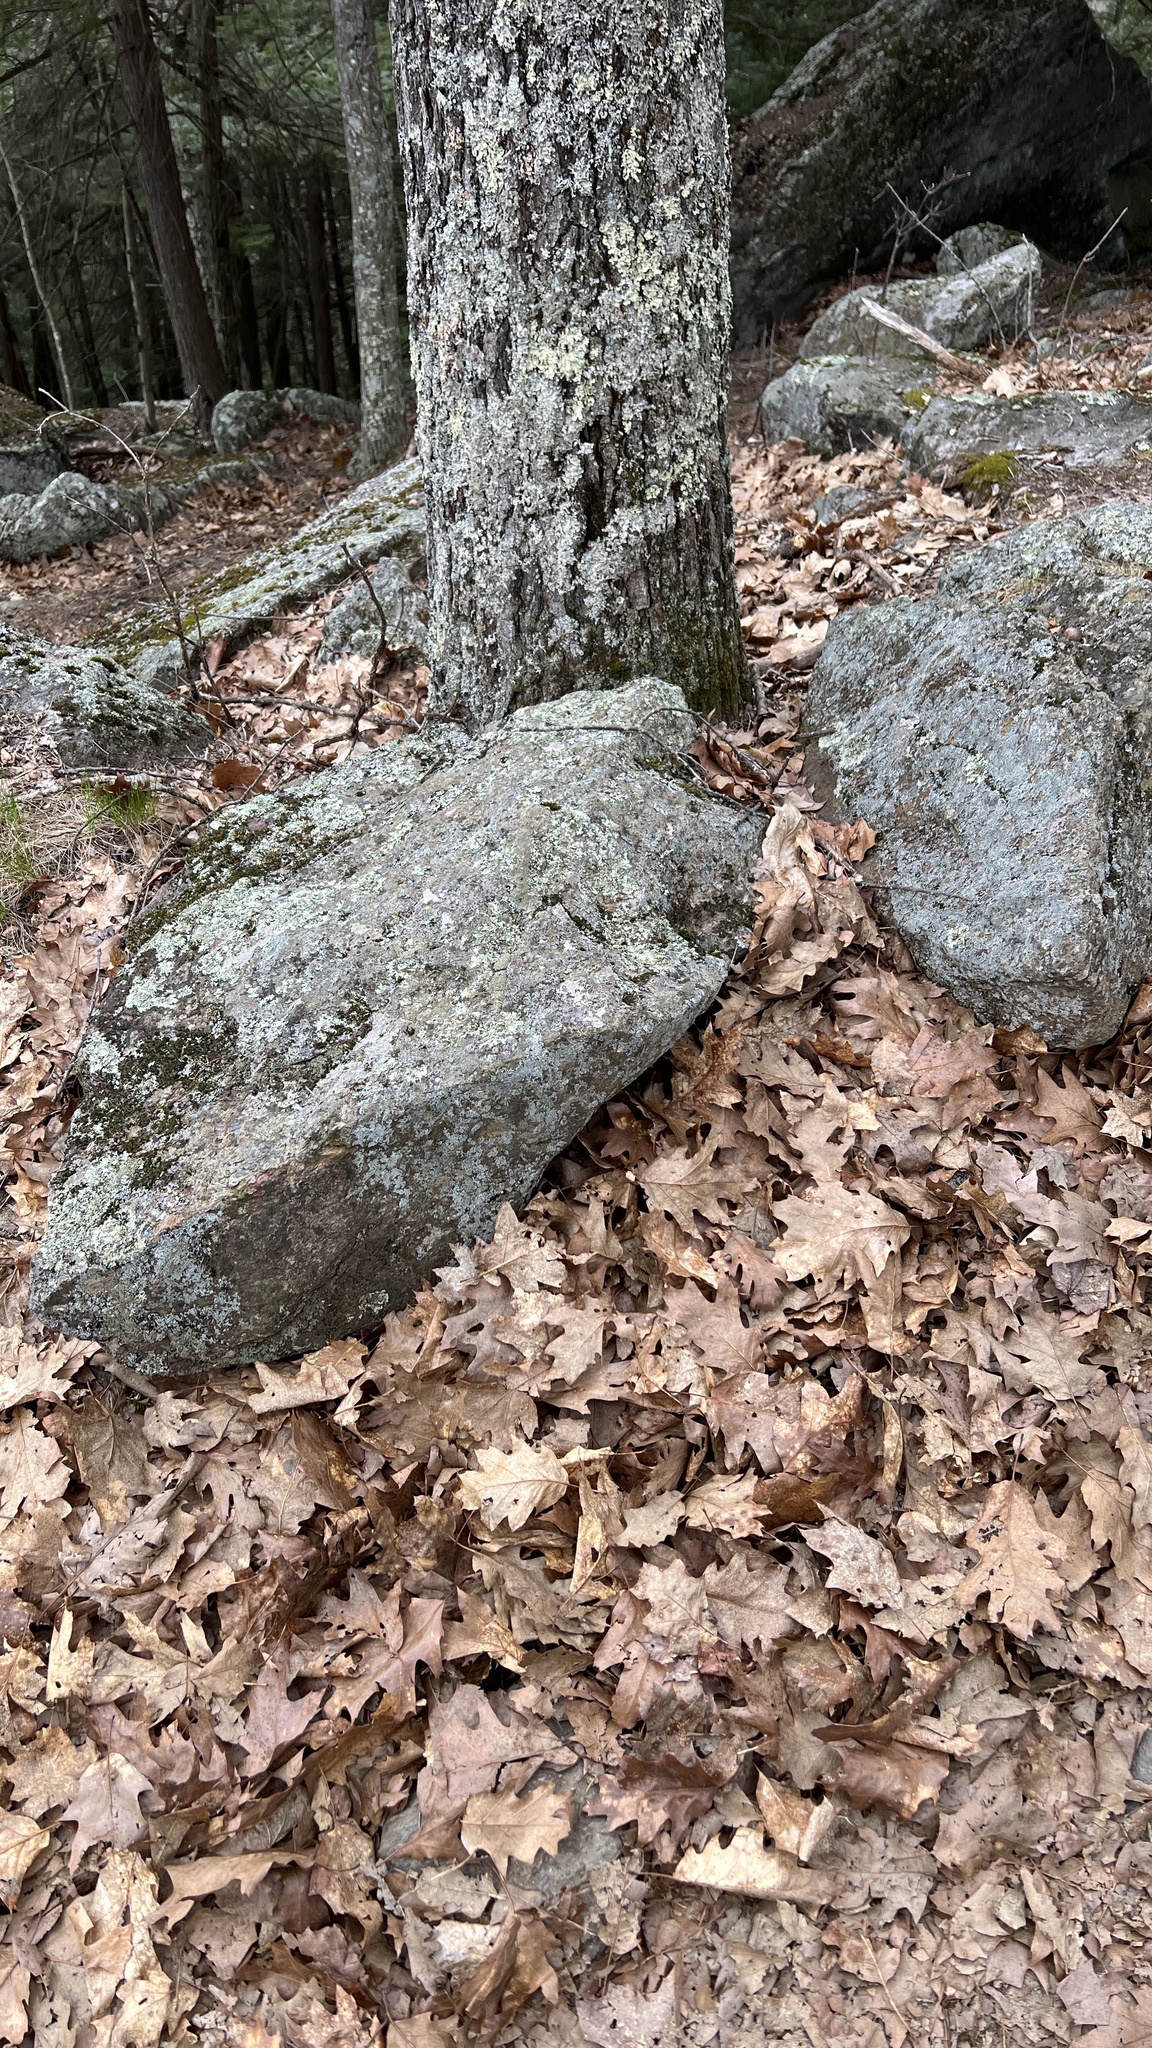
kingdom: Plantae
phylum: Tracheophyta
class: Magnoliopsida
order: Fagales
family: Fagaceae
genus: Quercus
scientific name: Quercus rubra
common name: Red oak
